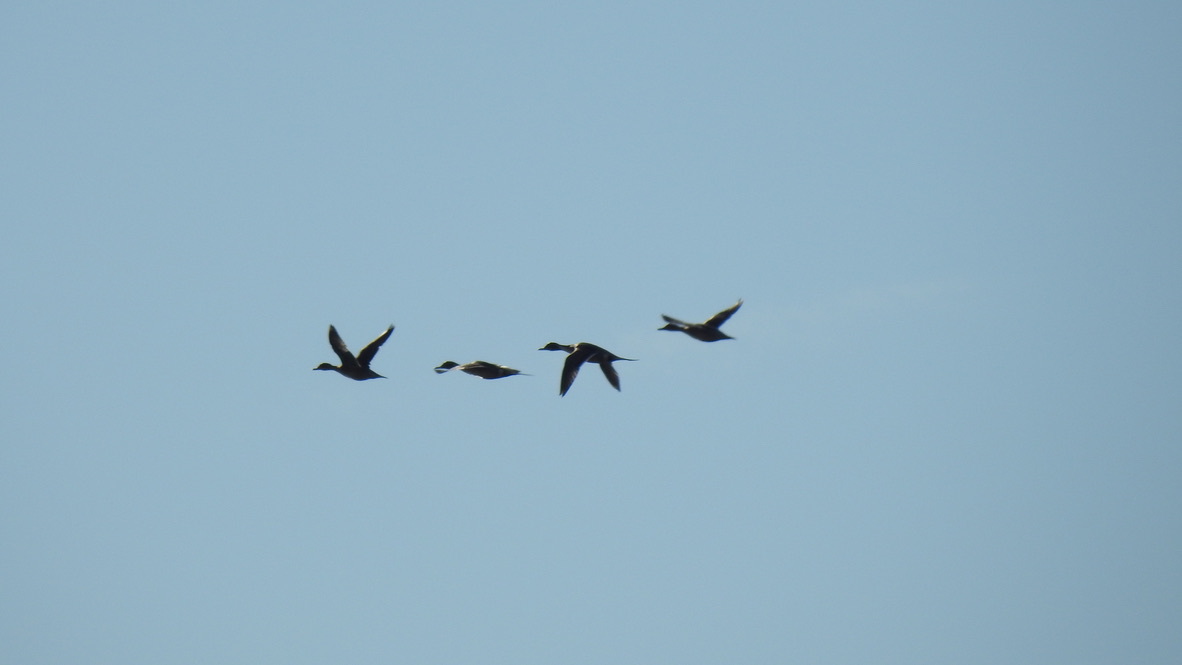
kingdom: Animalia
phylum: Chordata
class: Aves
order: Anseriformes
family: Anatidae
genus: Anas
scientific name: Anas acuta
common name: Northern pintail
